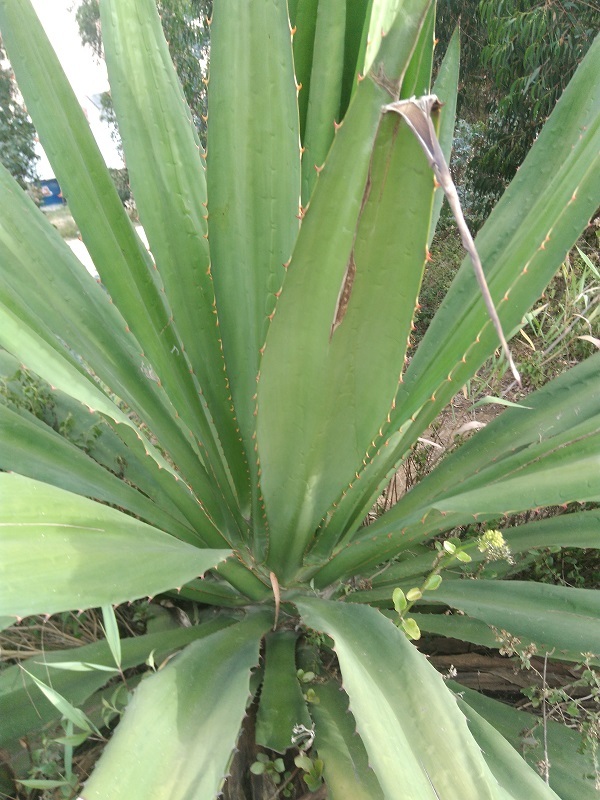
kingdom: Plantae
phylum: Tracheophyta
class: Liliopsida
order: Asparagales
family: Asparagaceae
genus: Furcraea
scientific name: Furcraea cabuya
